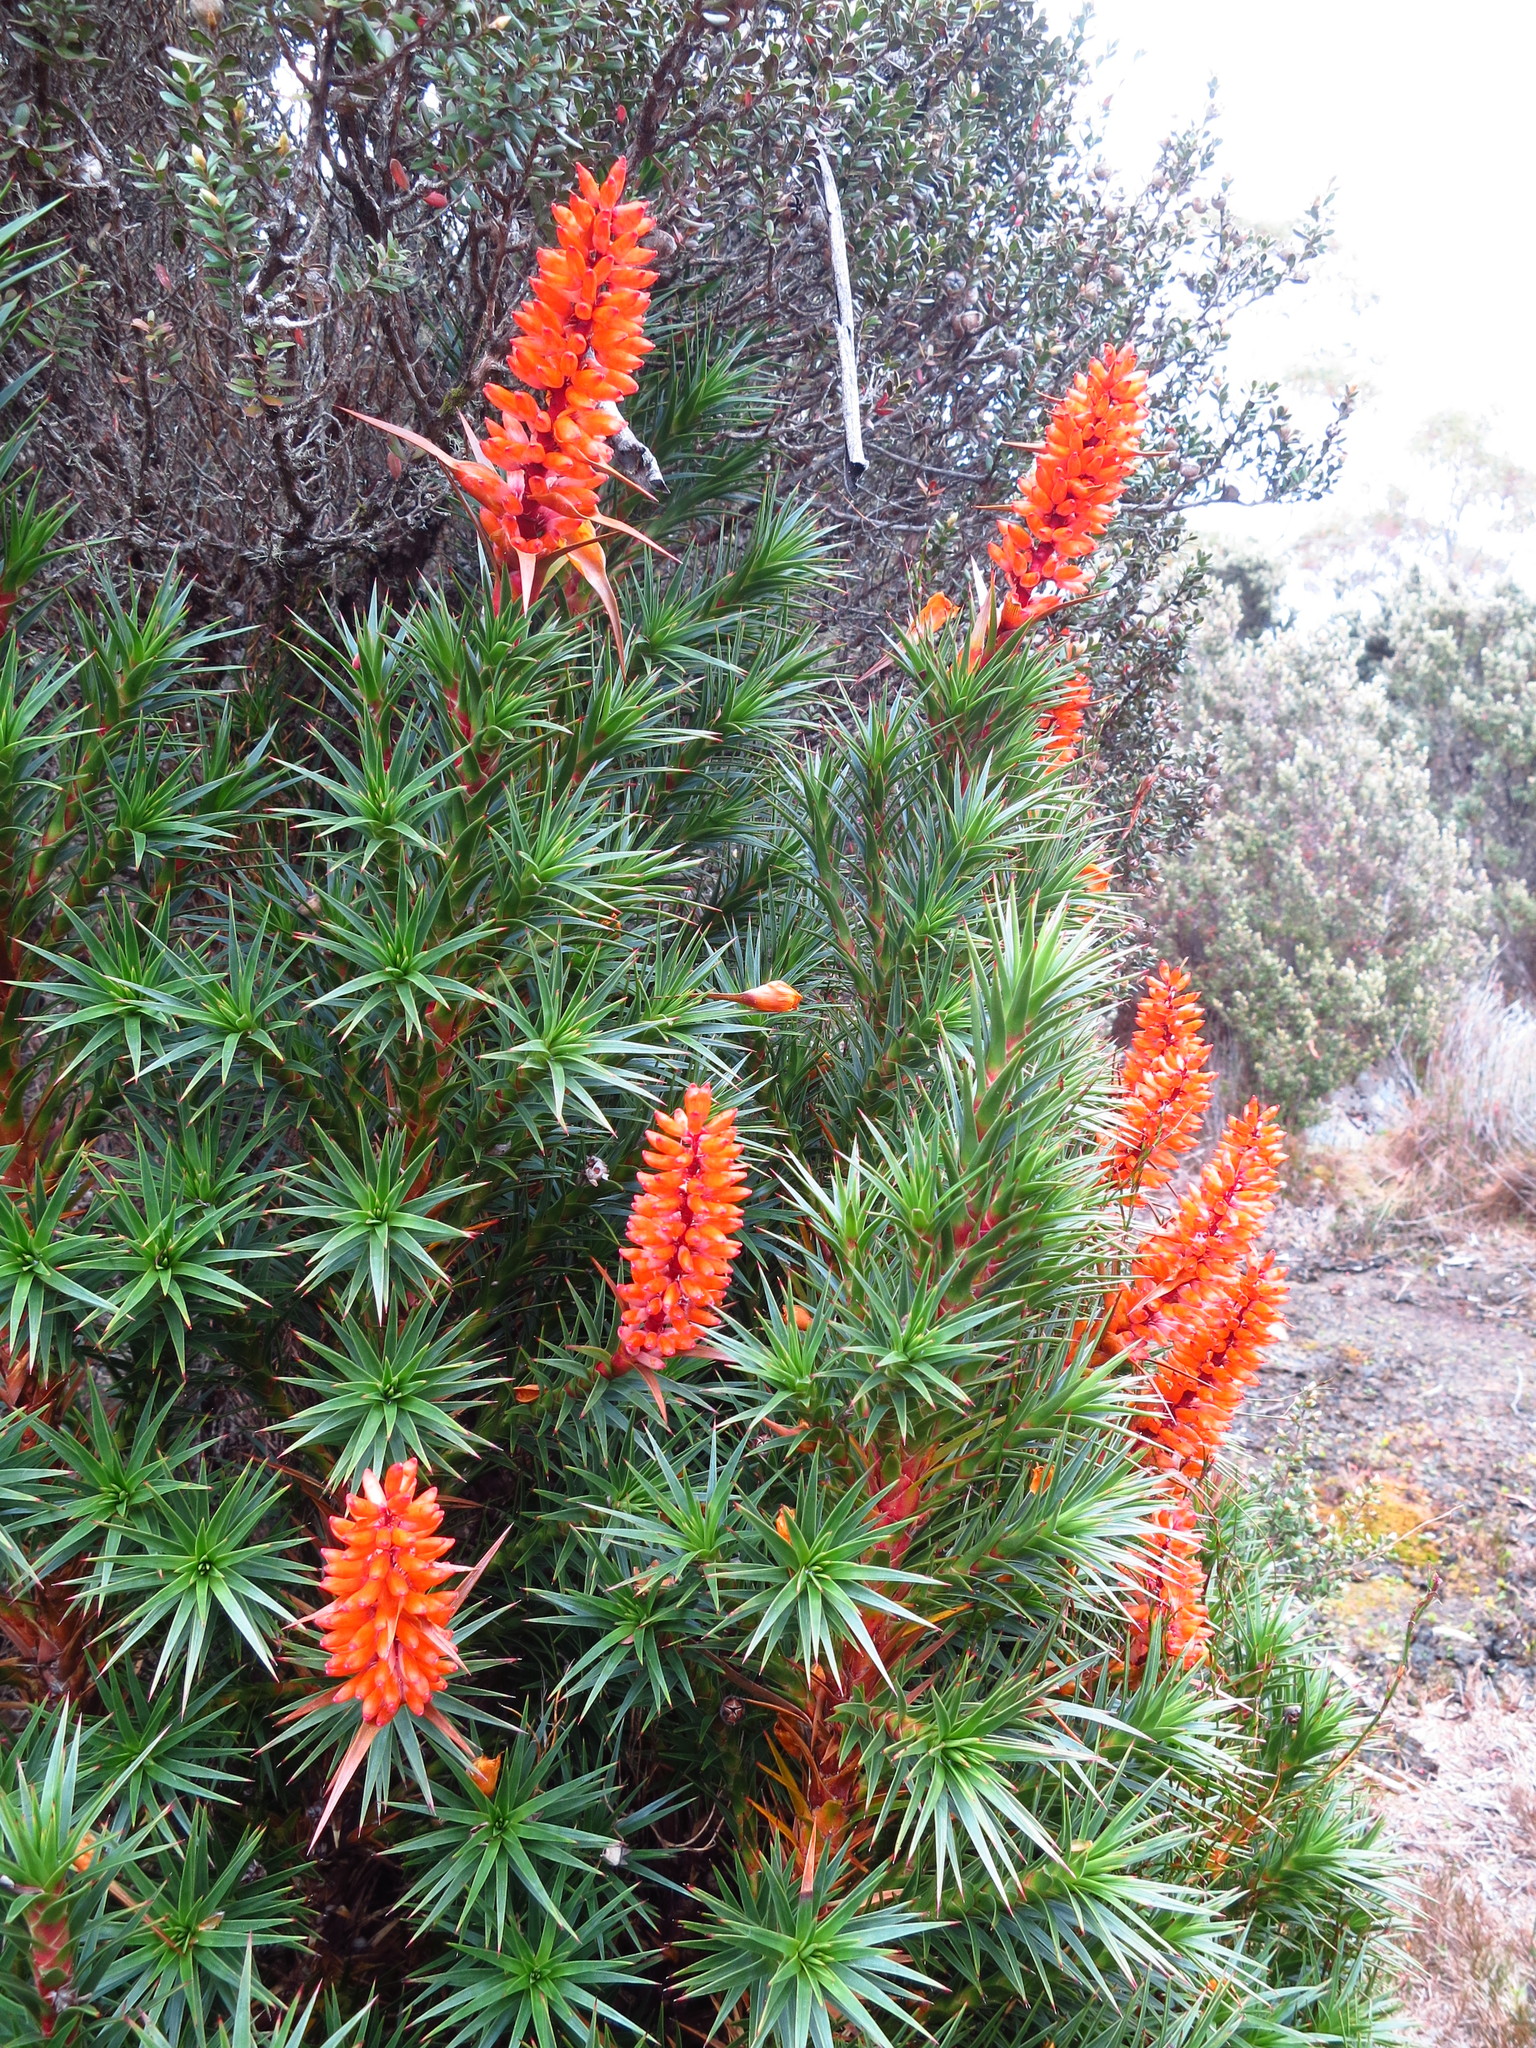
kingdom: Plantae
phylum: Tracheophyta
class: Magnoliopsida
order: Ericales
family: Ericaceae
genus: Dracophyllum
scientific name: Dracophyllum persistentifolium
